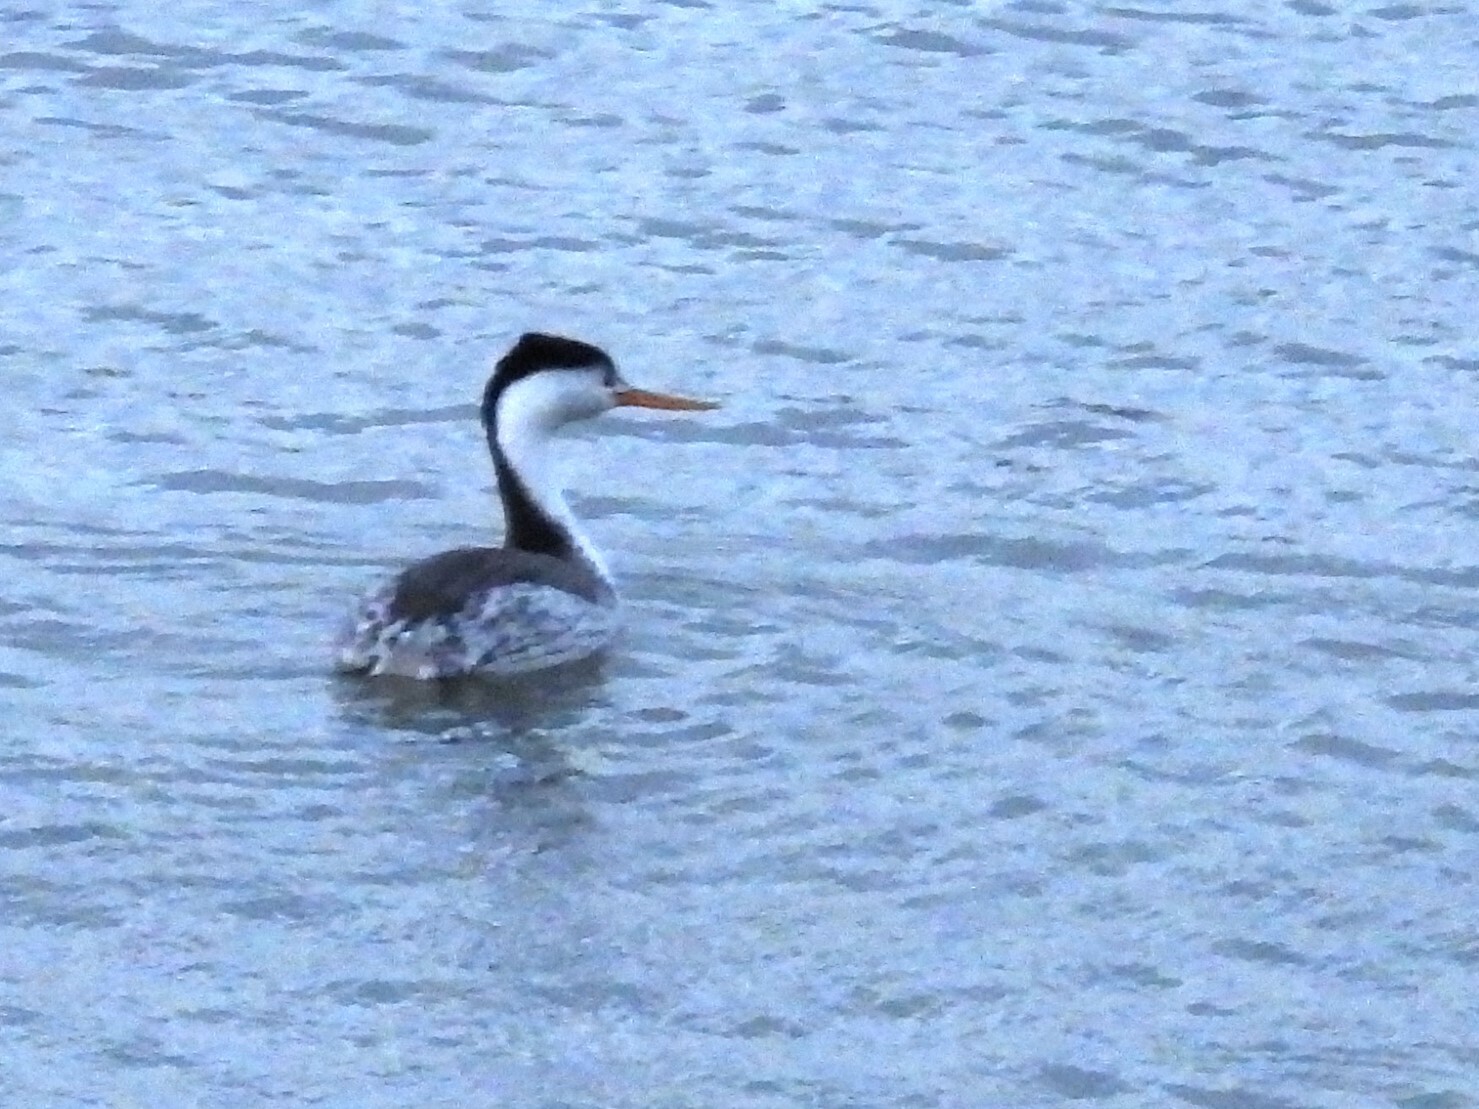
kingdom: Animalia
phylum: Chordata
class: Aves
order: Podicipediformes
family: Podicipedidae
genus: Aechmophorus
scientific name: Aechmophorus clarkii
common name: Clark's grebe
